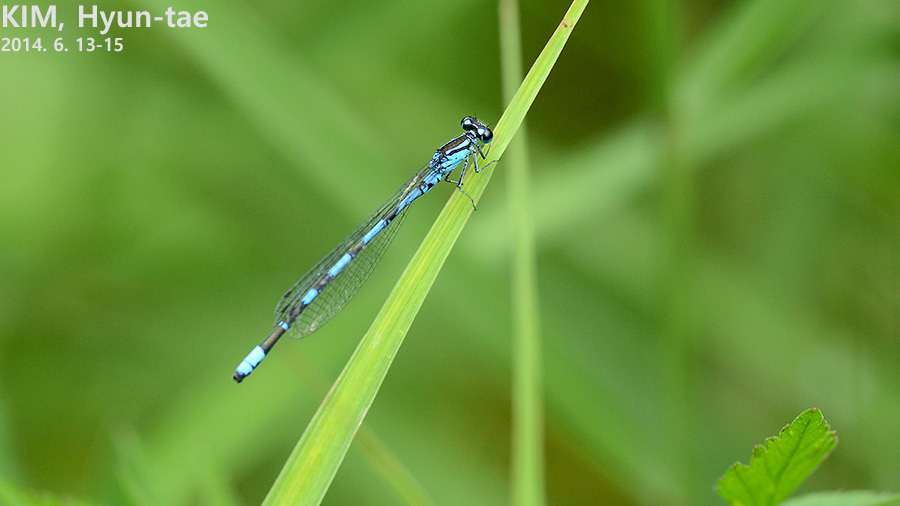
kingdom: Animalia
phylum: Arthropoda
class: Insecta
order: Odonata
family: Coenagrionidae
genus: Coenagrion
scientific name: Coenagrion hylas
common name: Frey's damselfly
